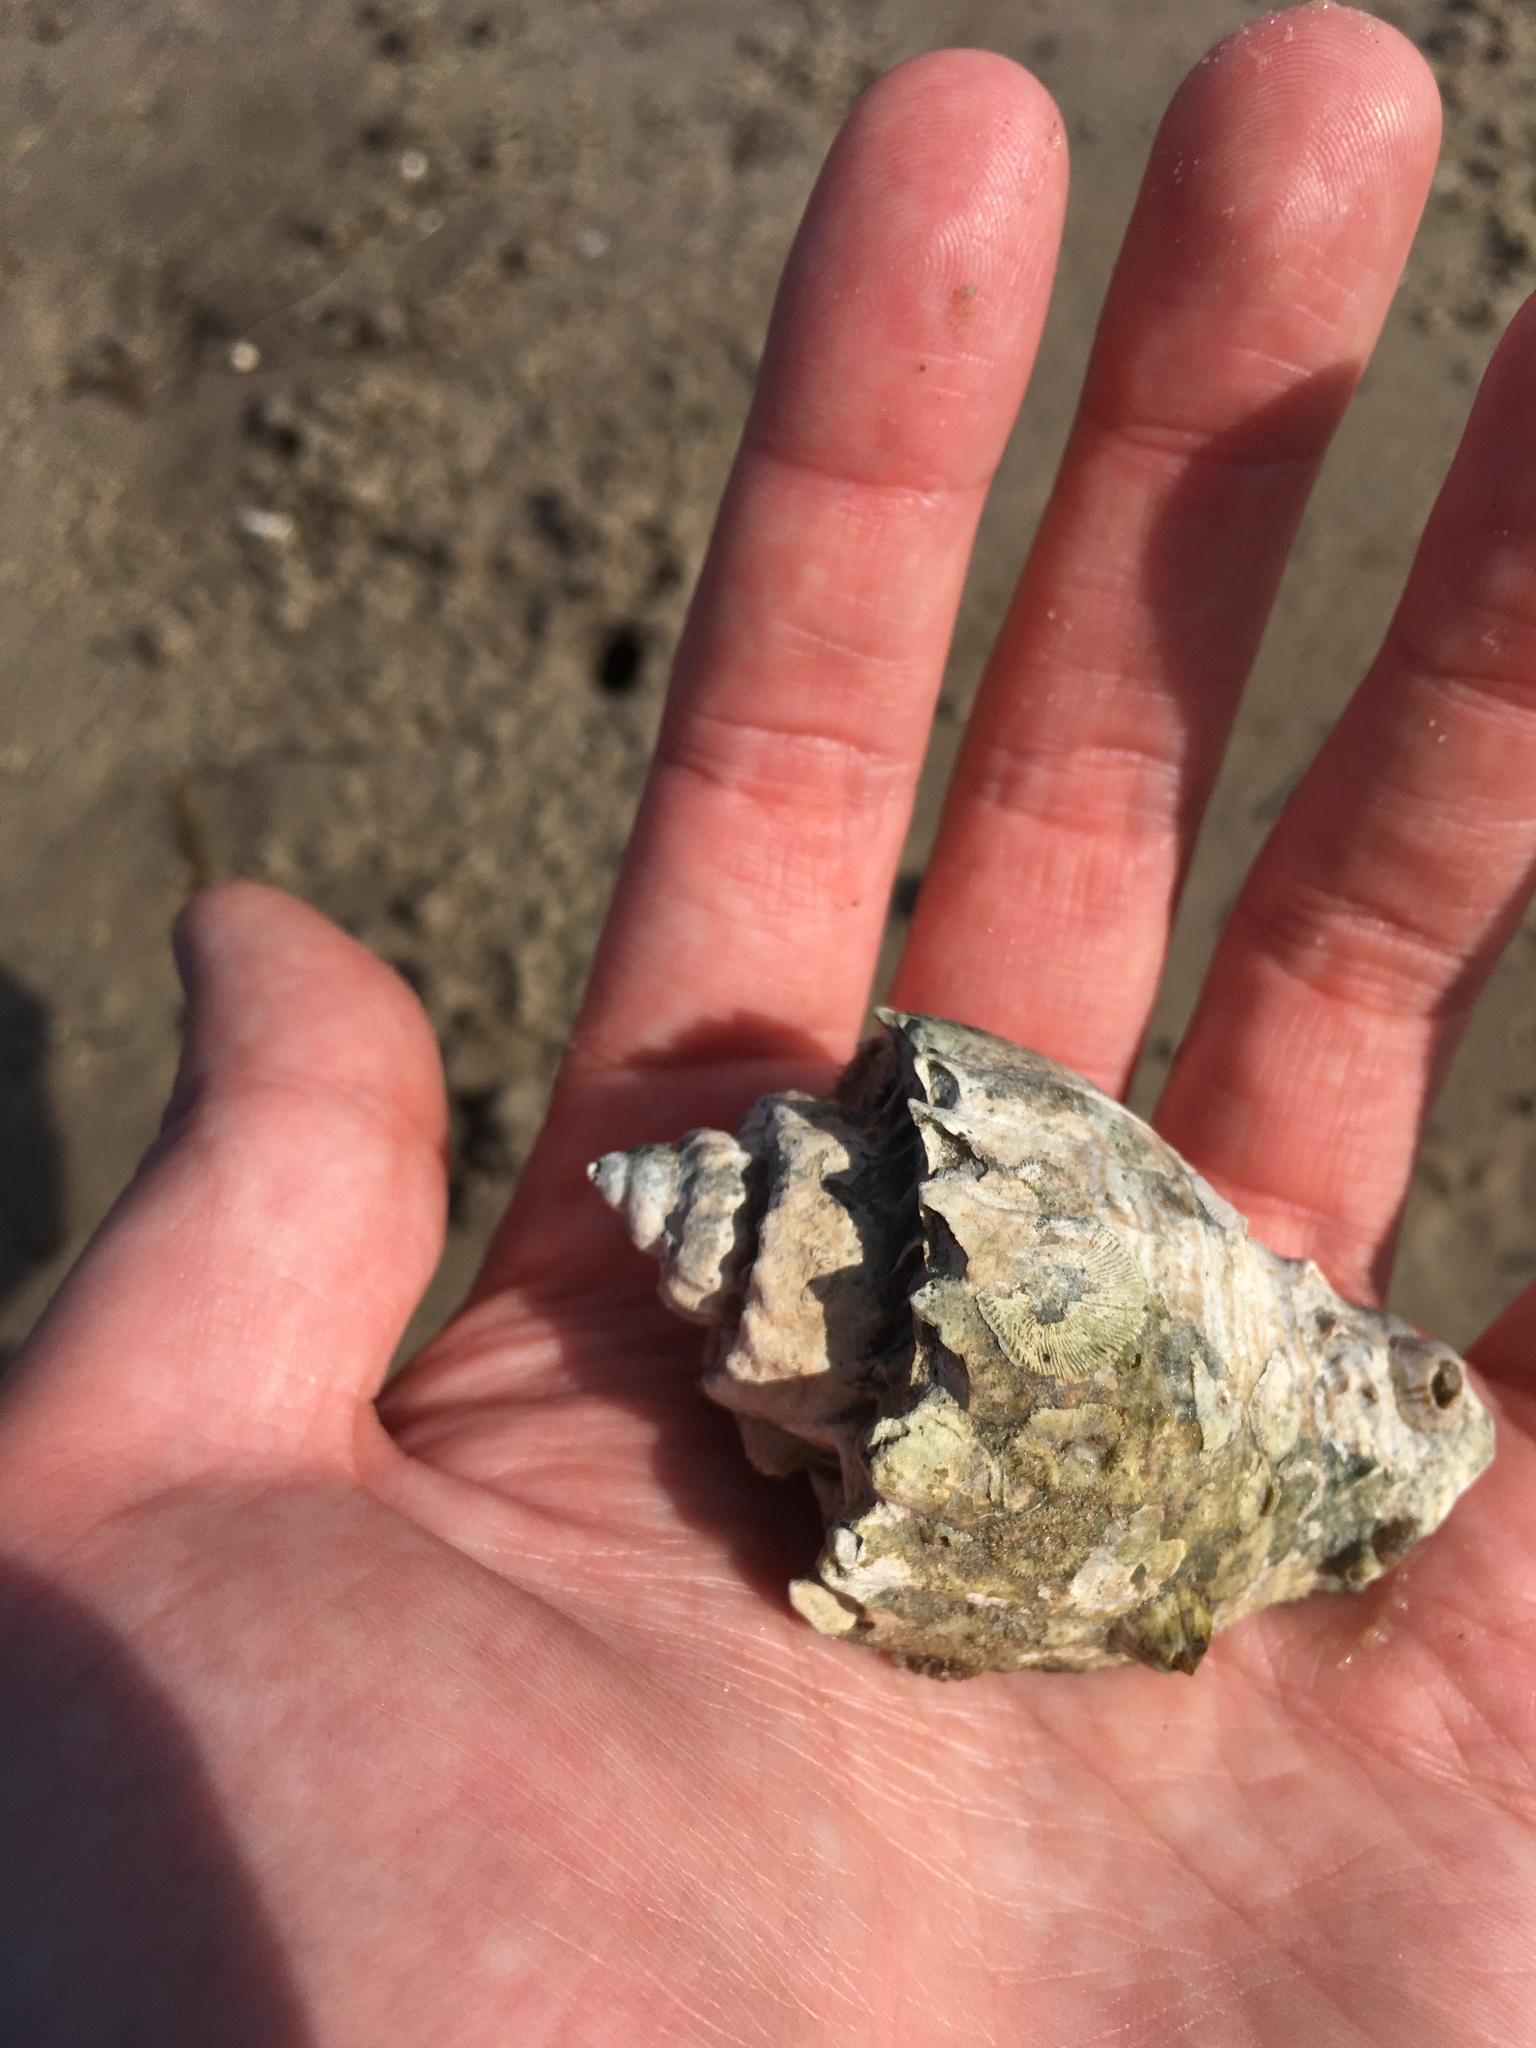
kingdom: Animalia
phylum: Mollusca
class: Gastropoda
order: Neogastropoda
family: Melongenidae
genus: Melongena
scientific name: Melongena corona
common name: American crown conch
